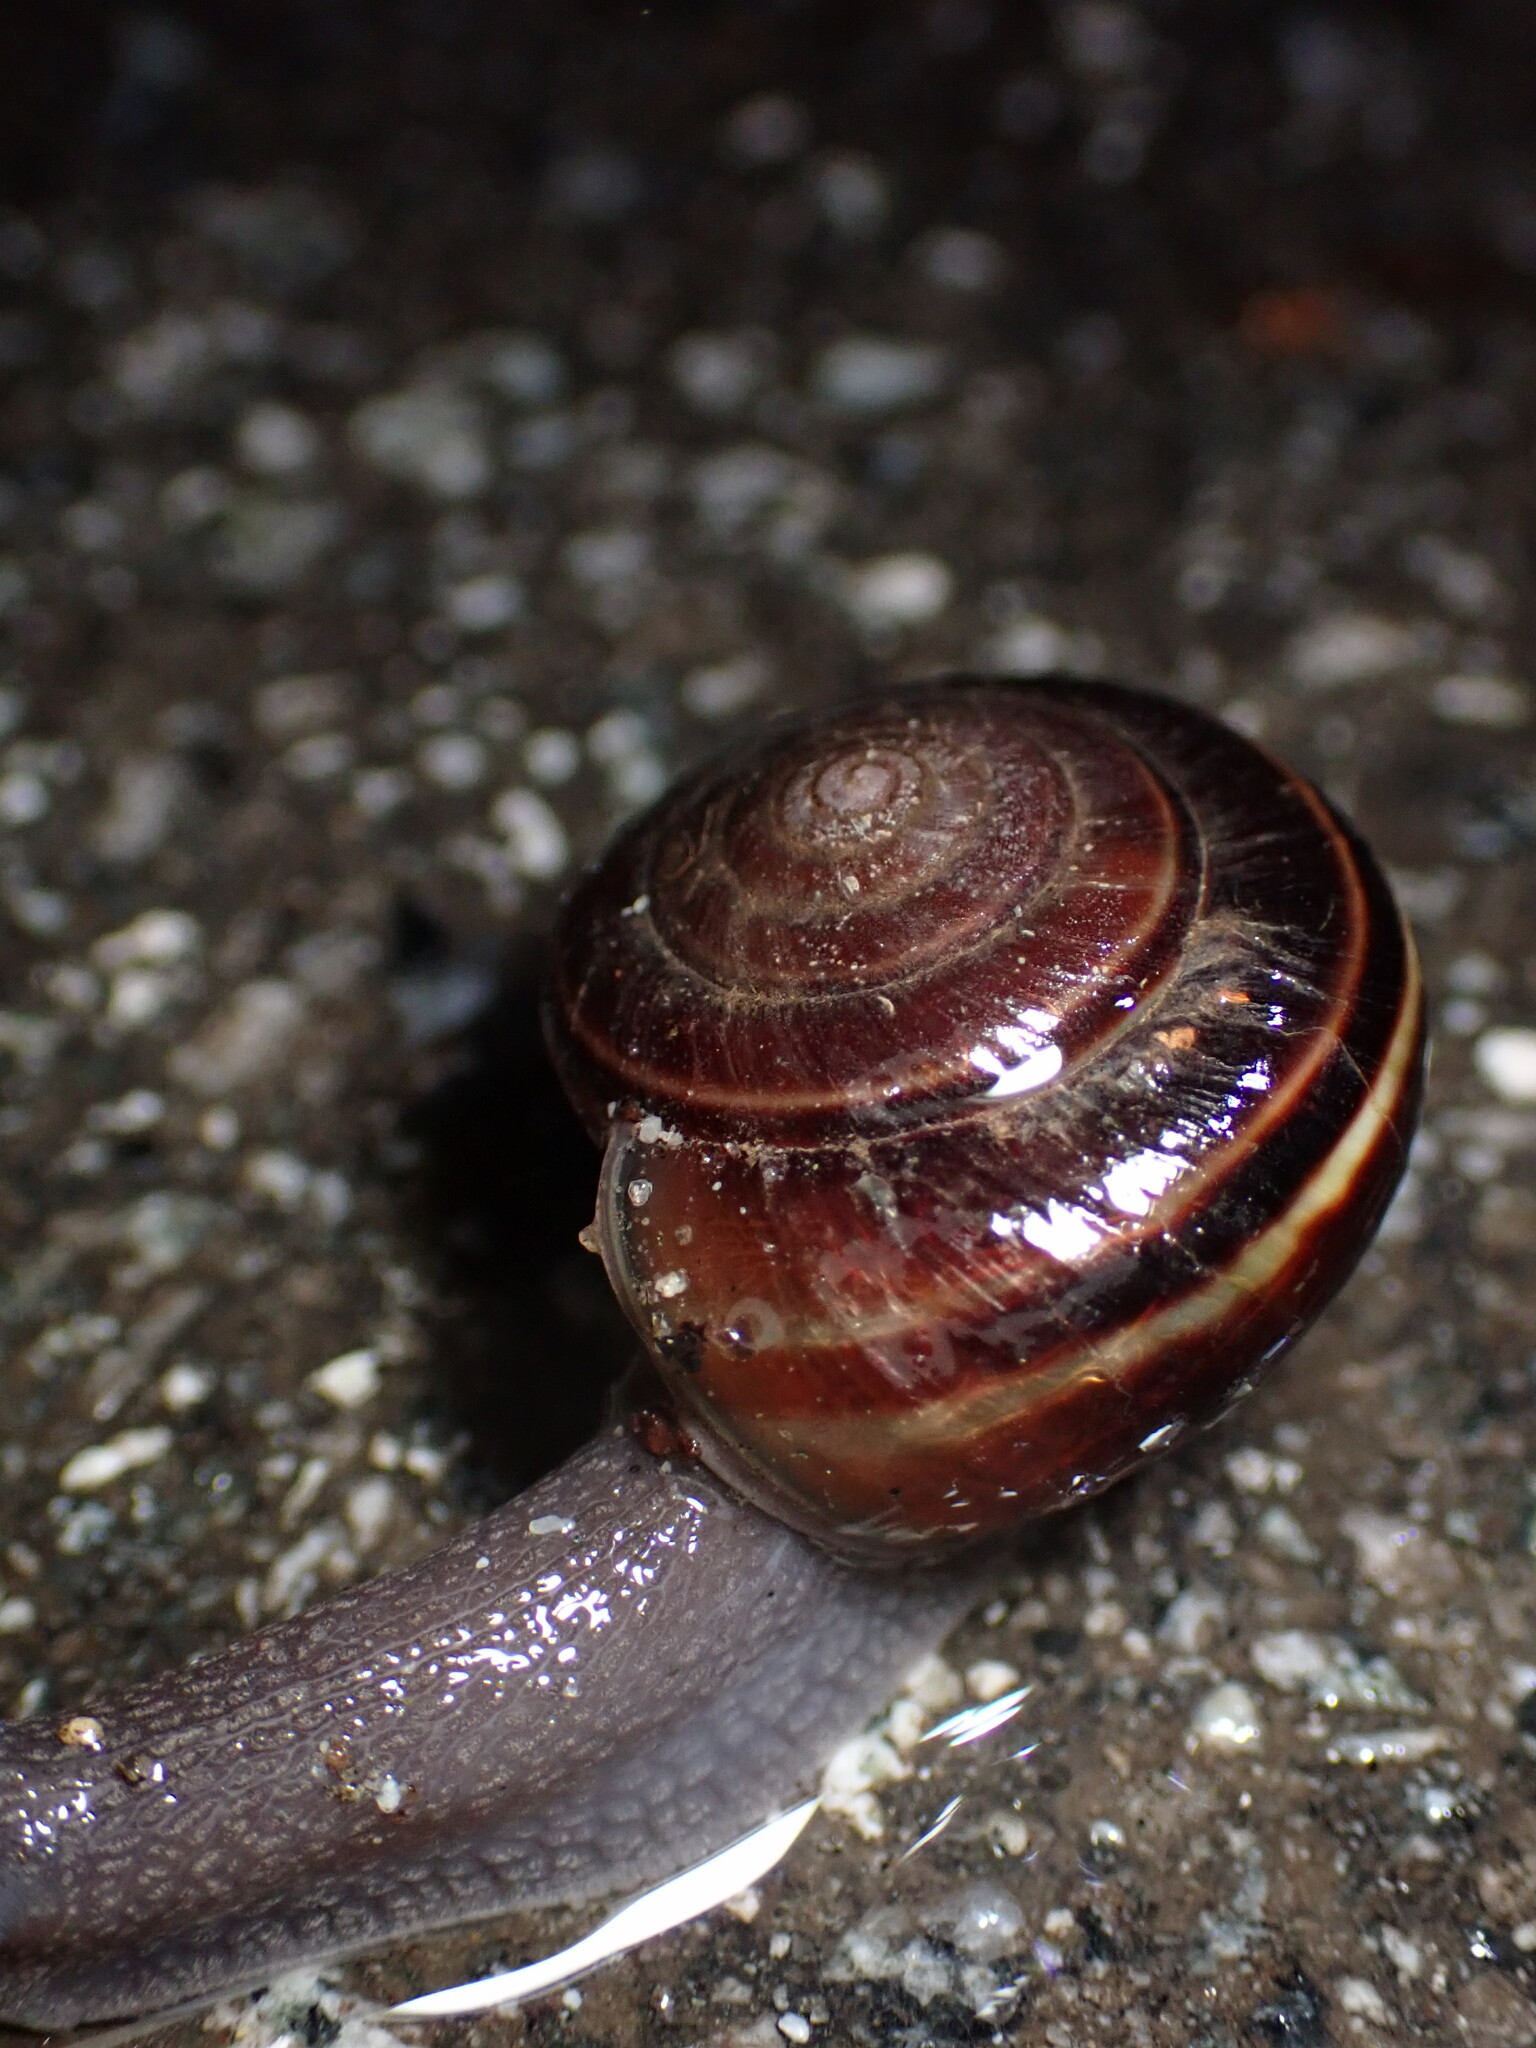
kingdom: Animalia
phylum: Mollusca
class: Gastropoda
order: Stylommatophora
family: Xanthonychidae
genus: Helminthoglypta
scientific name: Helminthoglypta sequoicola
